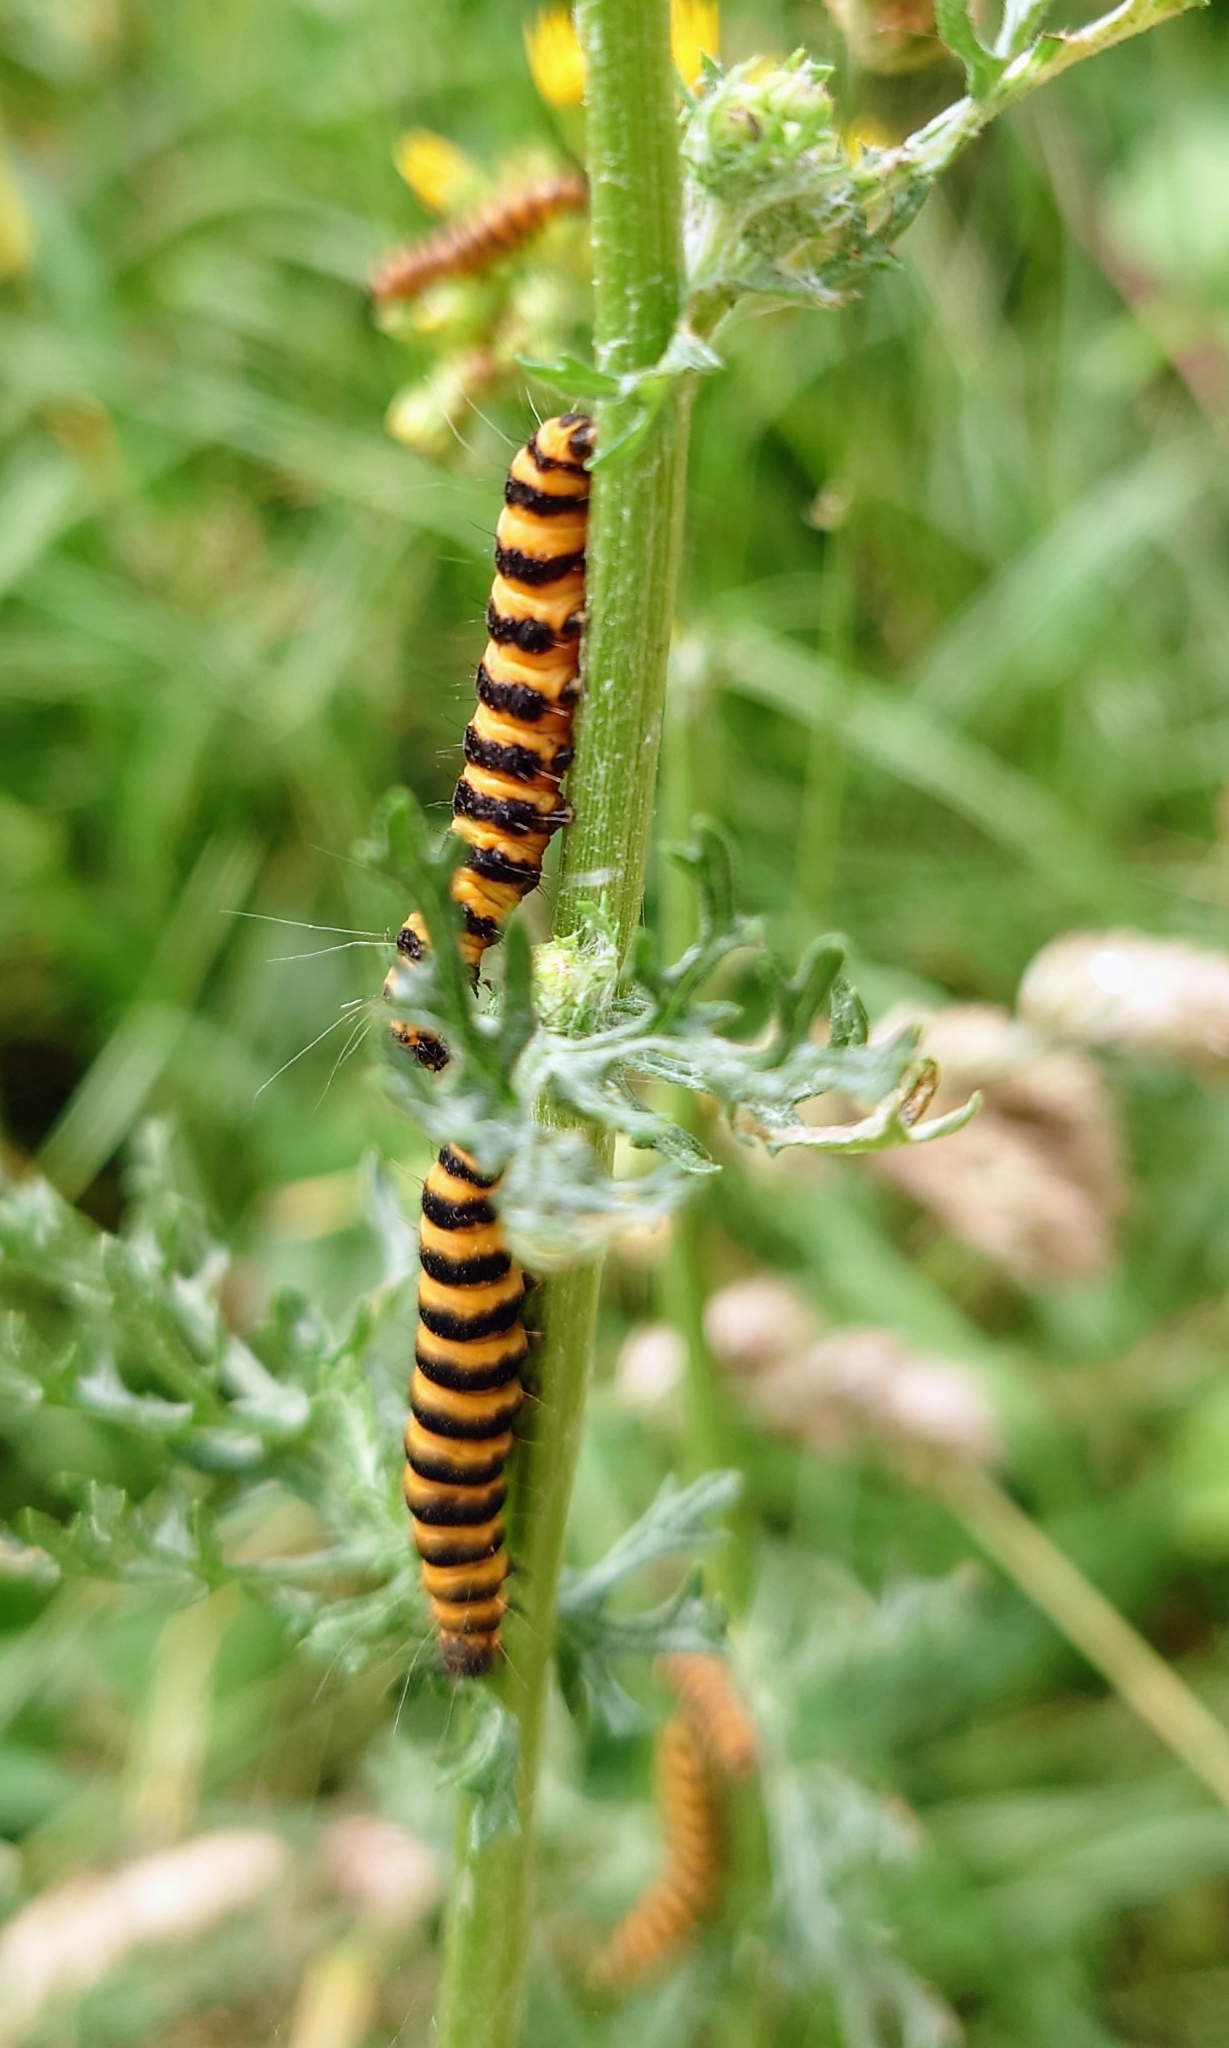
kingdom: Animalia
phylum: Arthropoda
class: Insecta
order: Lepidoptera
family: Erebidae
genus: Tyria
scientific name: Tyria jacobaeae
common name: Cinnabar
